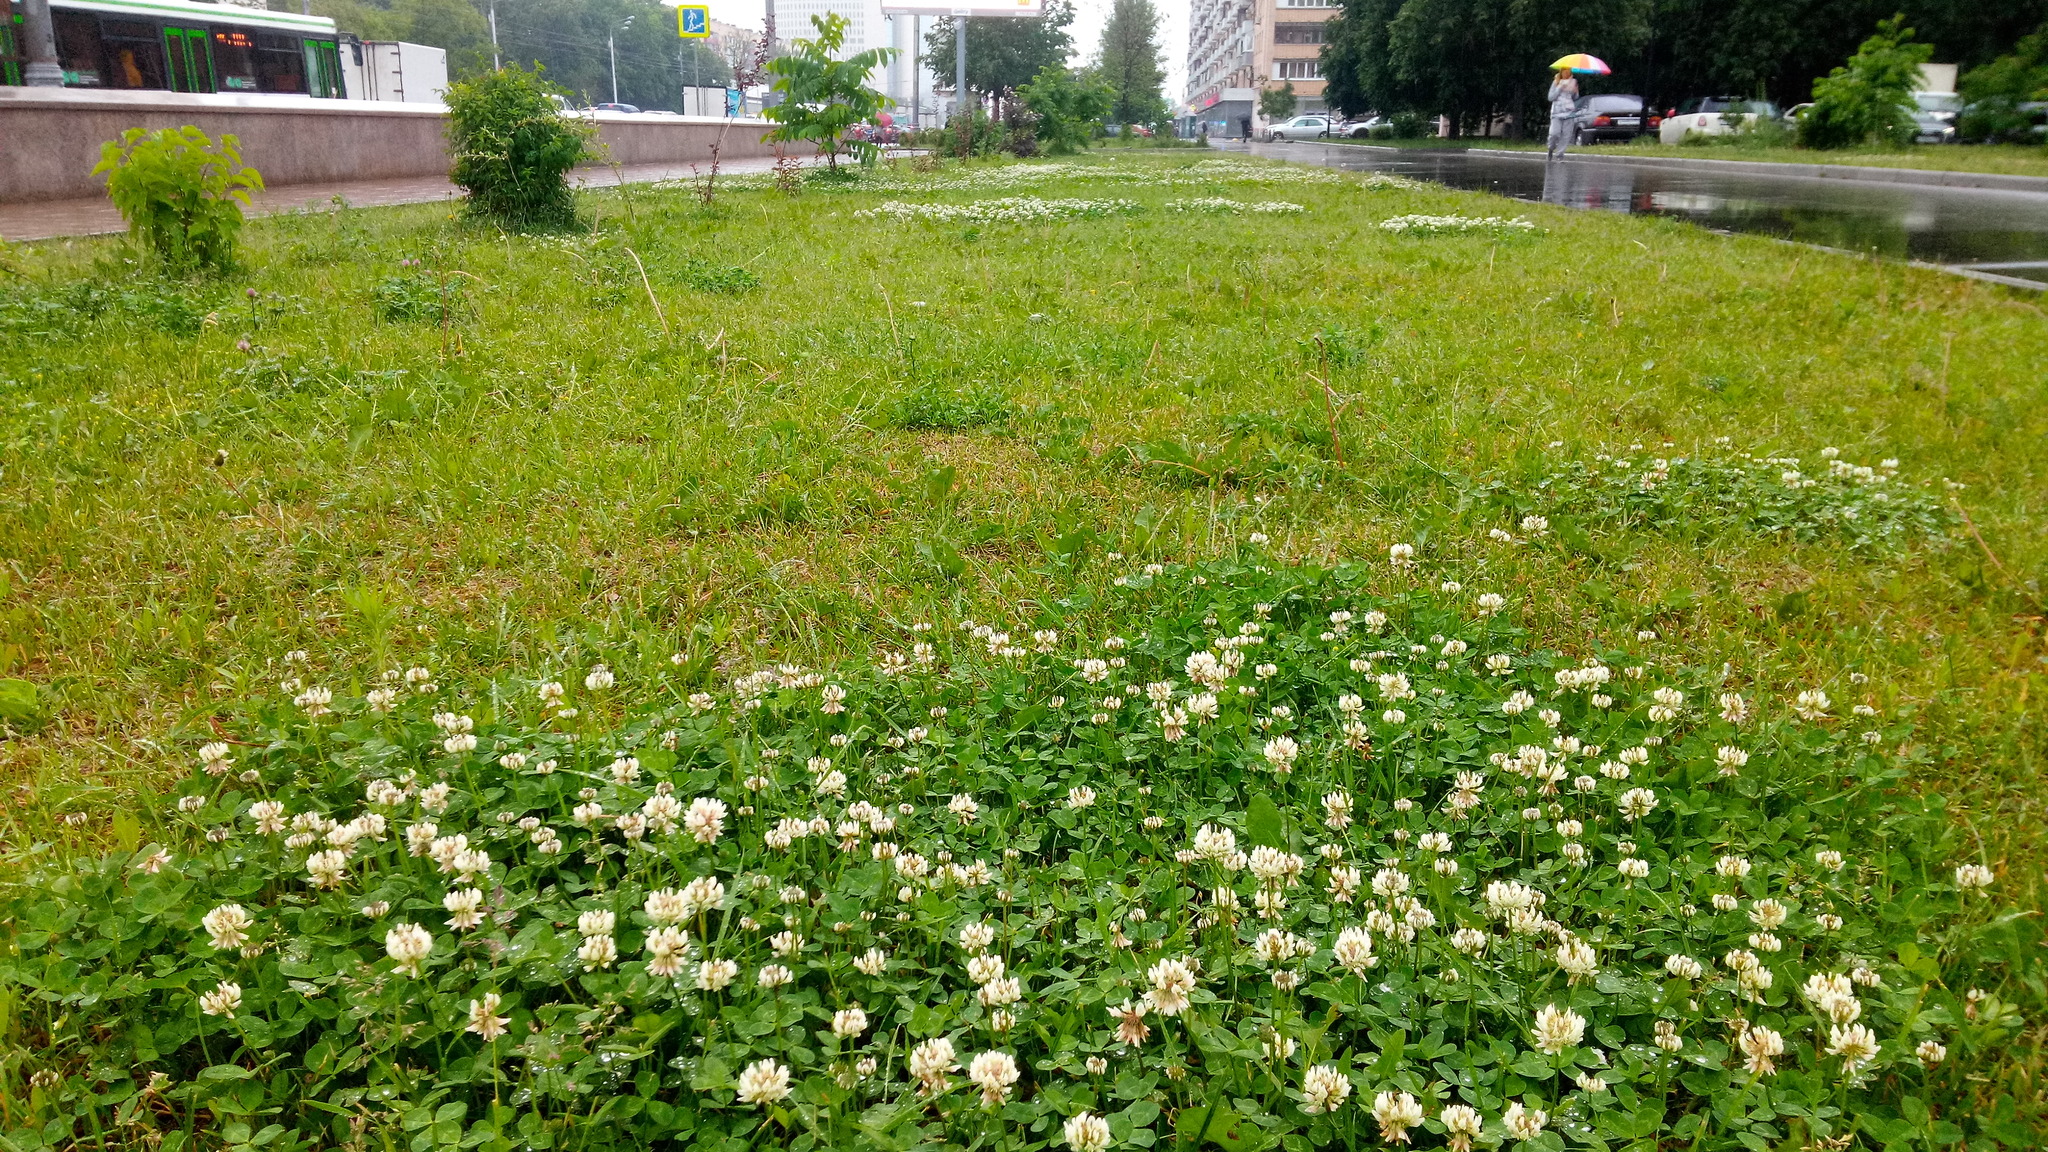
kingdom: Plantae
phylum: Tracheophyta
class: Magnoliopsida
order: Fabales
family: Fabaceae
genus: Trifolium
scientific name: Trifolium repens
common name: White clover
